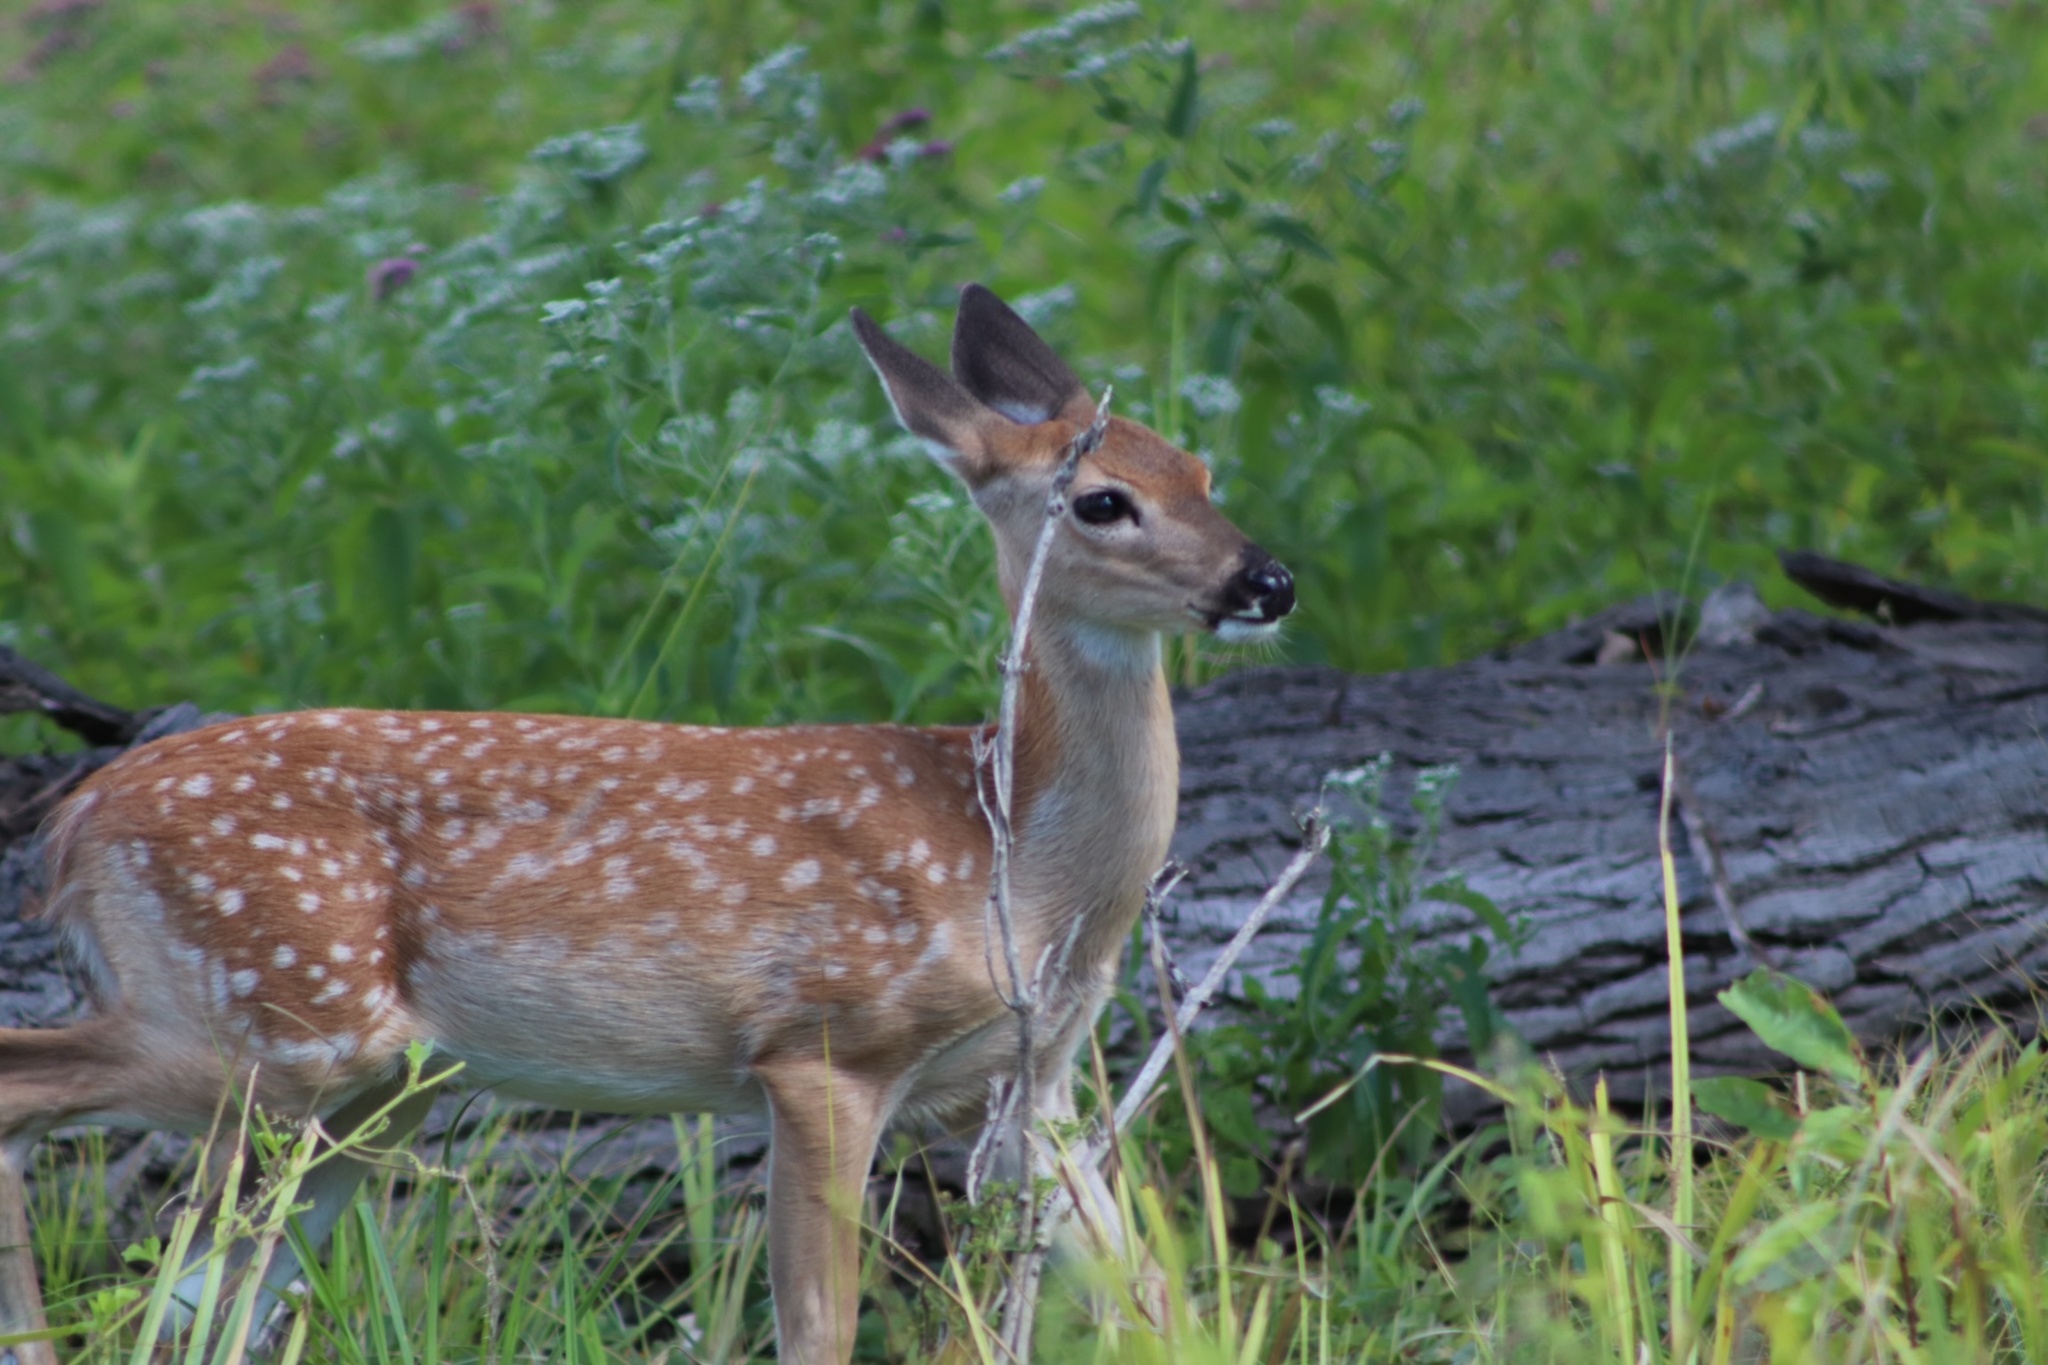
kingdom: Animalia
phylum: Chordata
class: Mammalia
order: Artiodactyla
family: Cervidae
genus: Odocoileus
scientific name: Odocoileus virginianus
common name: White-tailed deer
